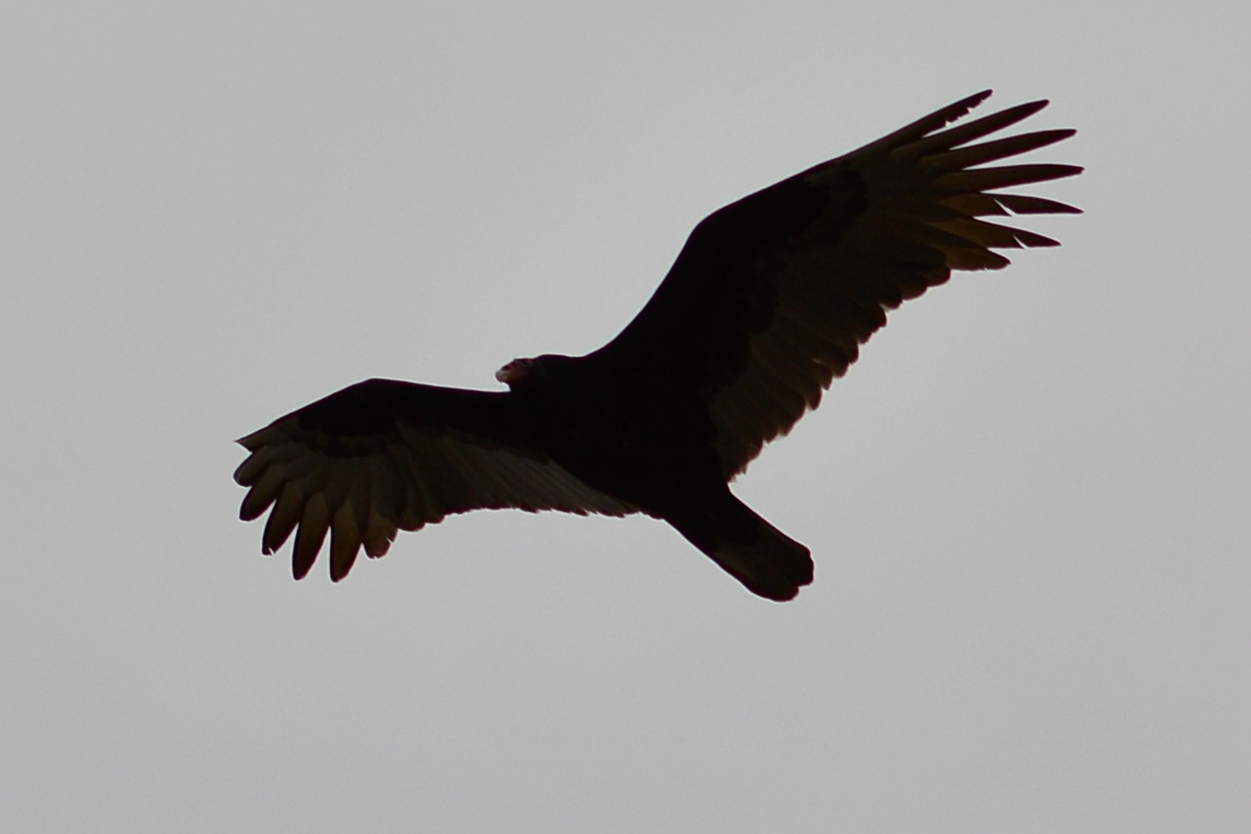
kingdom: Animalia
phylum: Chordata
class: Aves
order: Accipitriformes
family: Cathartidae
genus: Cathartes
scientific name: Cathartes aura
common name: Turkey vulture
